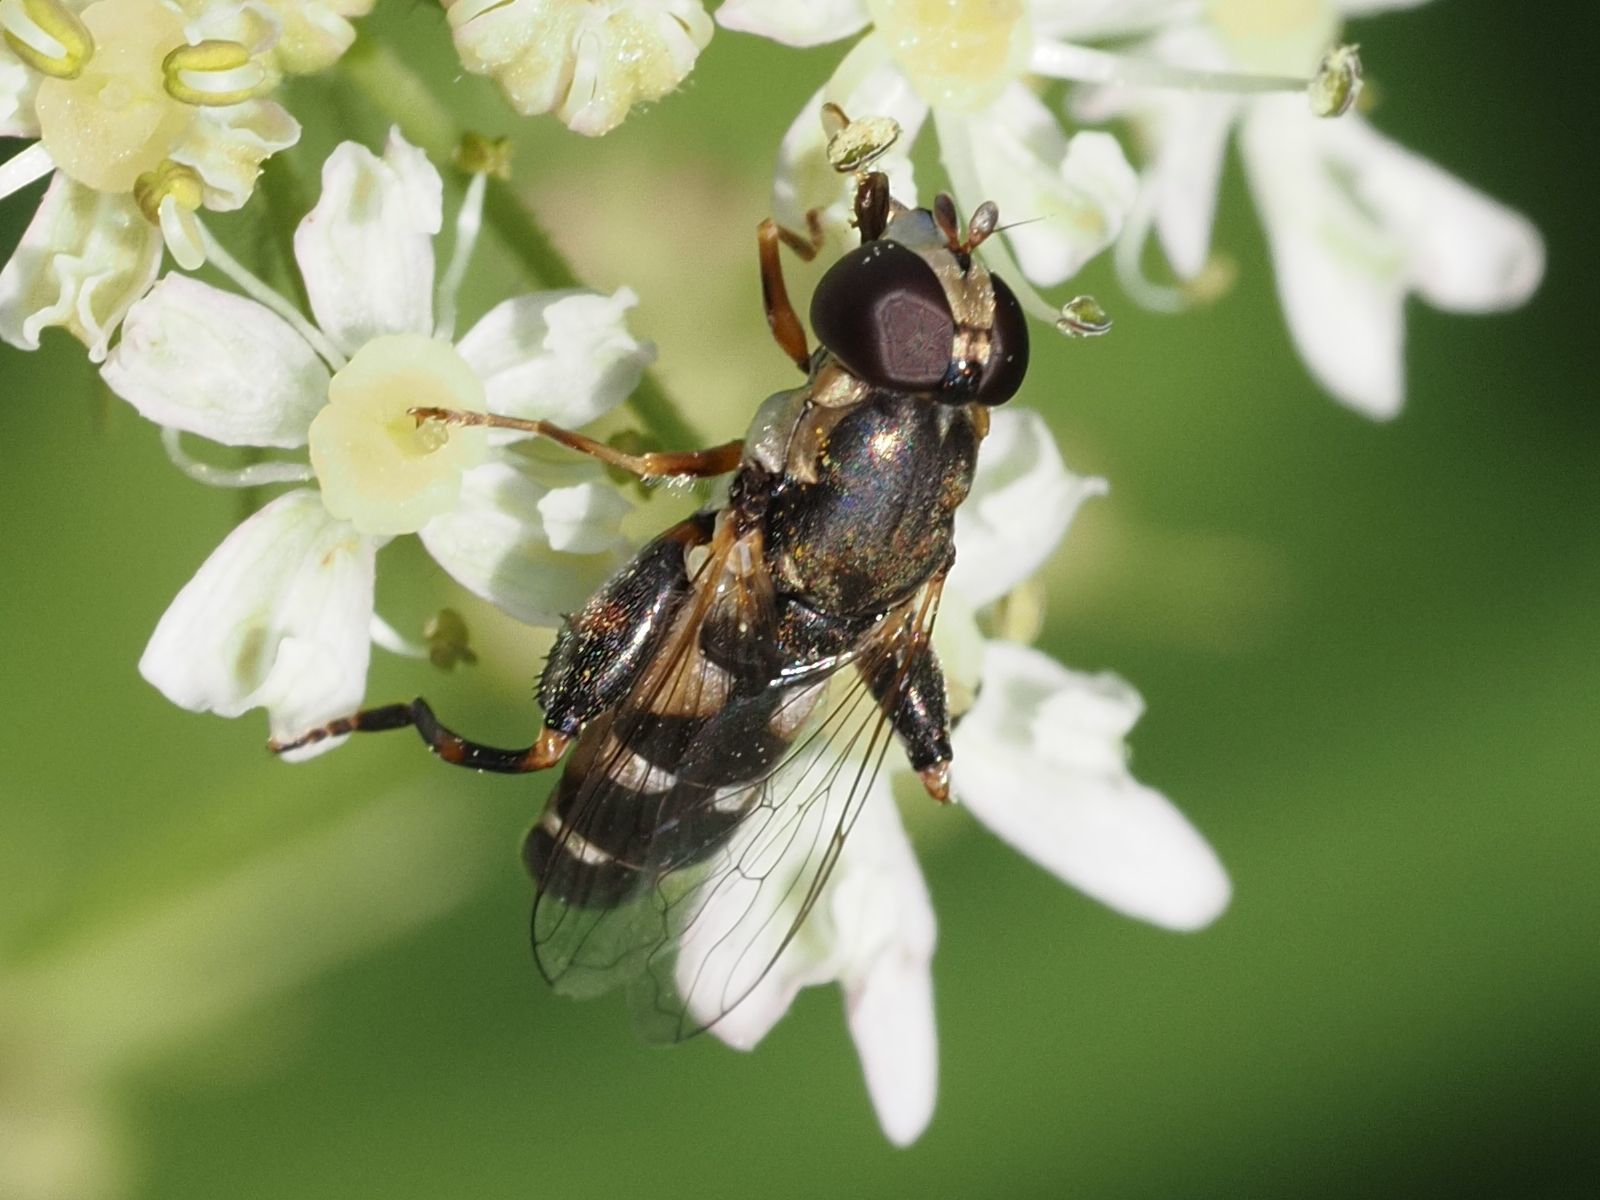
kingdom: Animalia
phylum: Arthropoda
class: Insecta
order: Diptera
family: Syrphidae
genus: Syritta
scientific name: Syritta pipiens
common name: Hover fly
